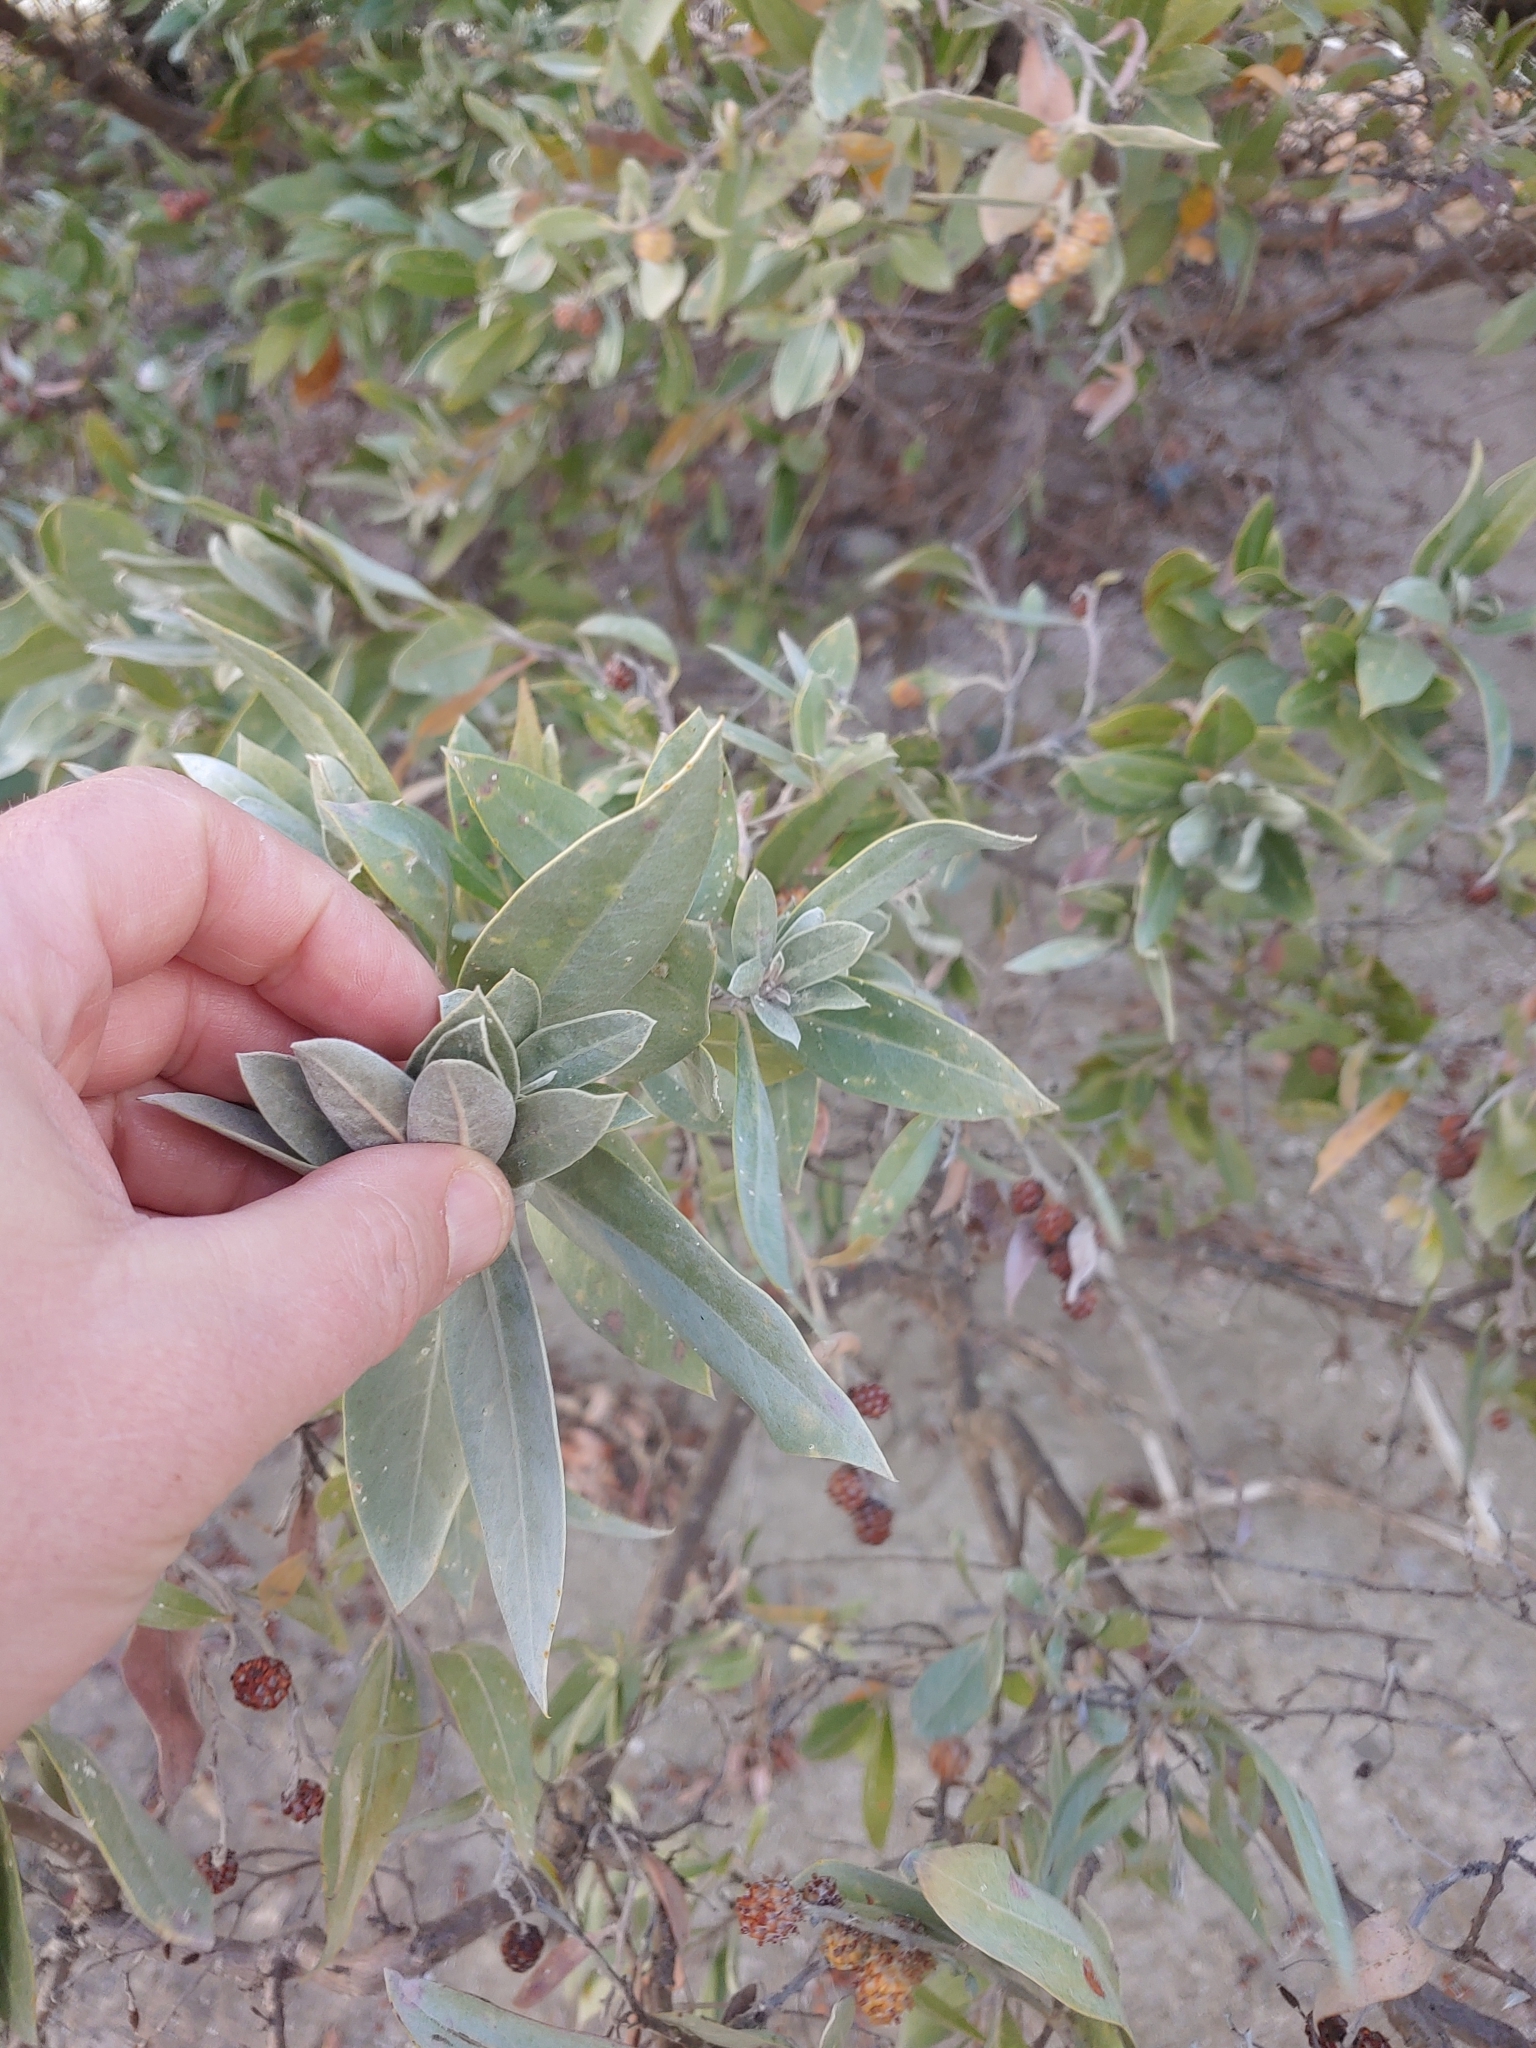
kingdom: Plantae
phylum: Tracheophyta
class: Magnoliopsida
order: Myrtales
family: Combretaceae
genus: Conocarpus
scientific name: Conocarpus erectus
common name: Button mangrove
